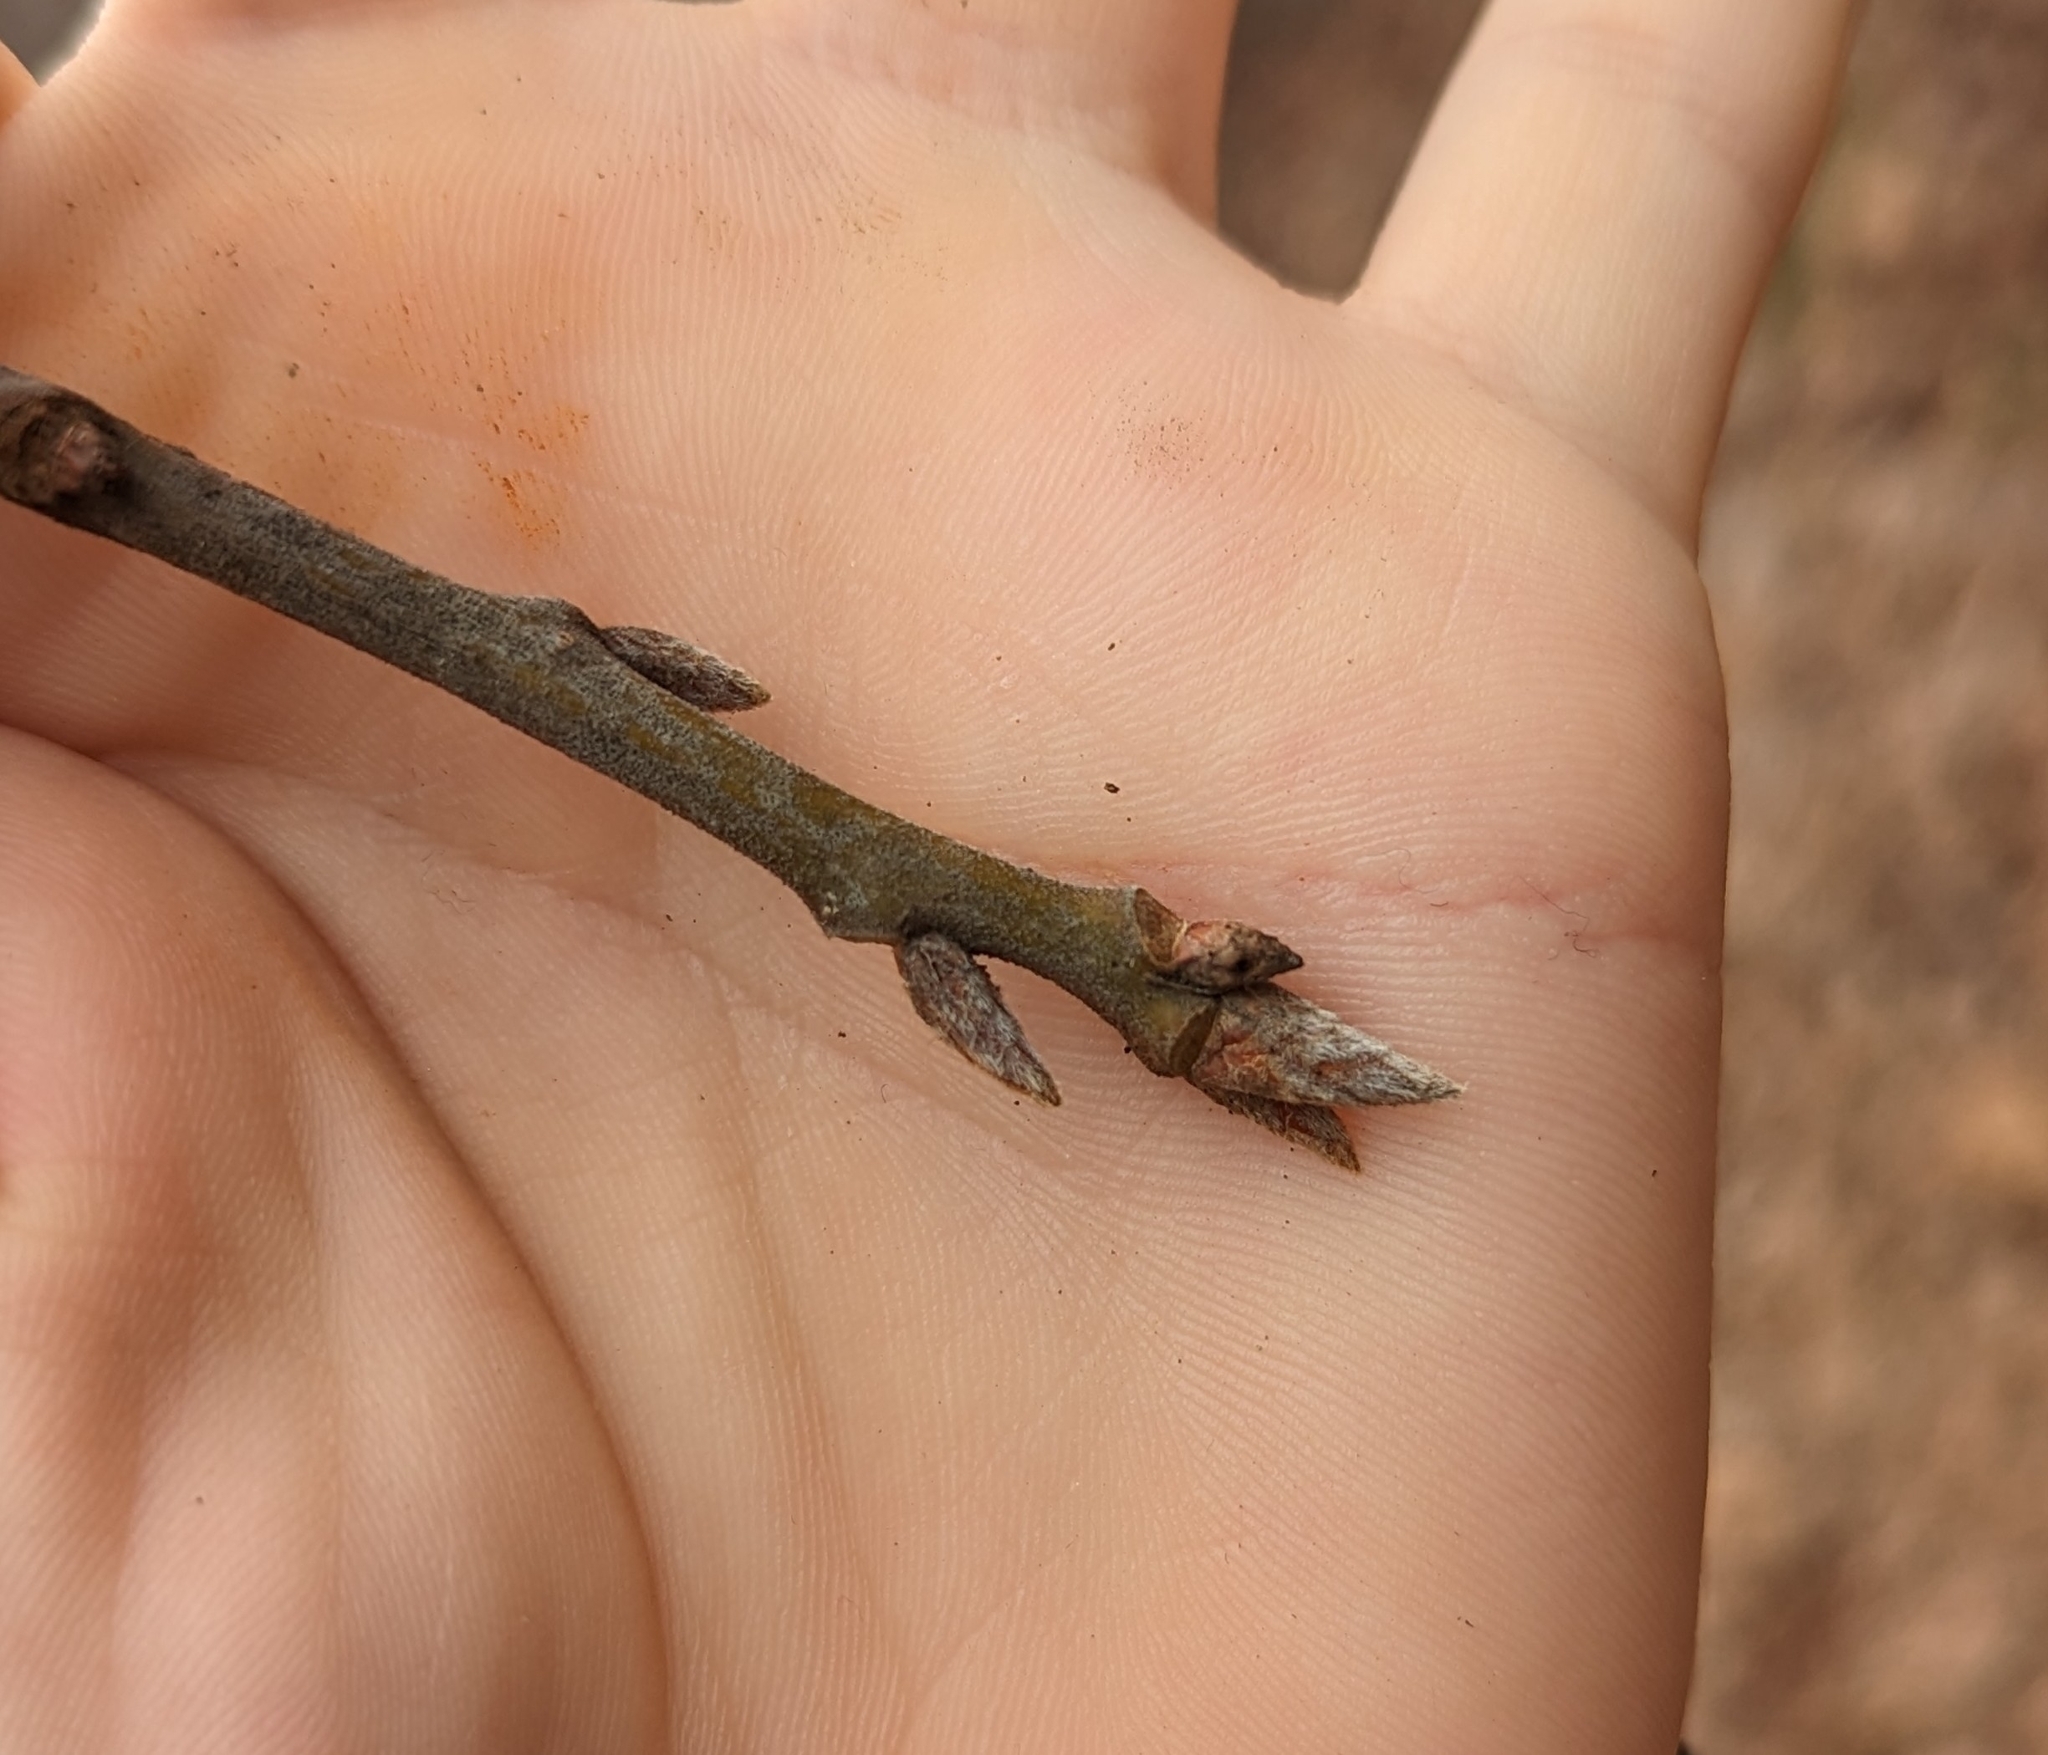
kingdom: Plantae
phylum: Tracheophyta
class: Magnoliopsida
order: Fagales
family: Fagaceae
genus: Quercus
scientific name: Quercus marilandica
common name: Blackjack oak
